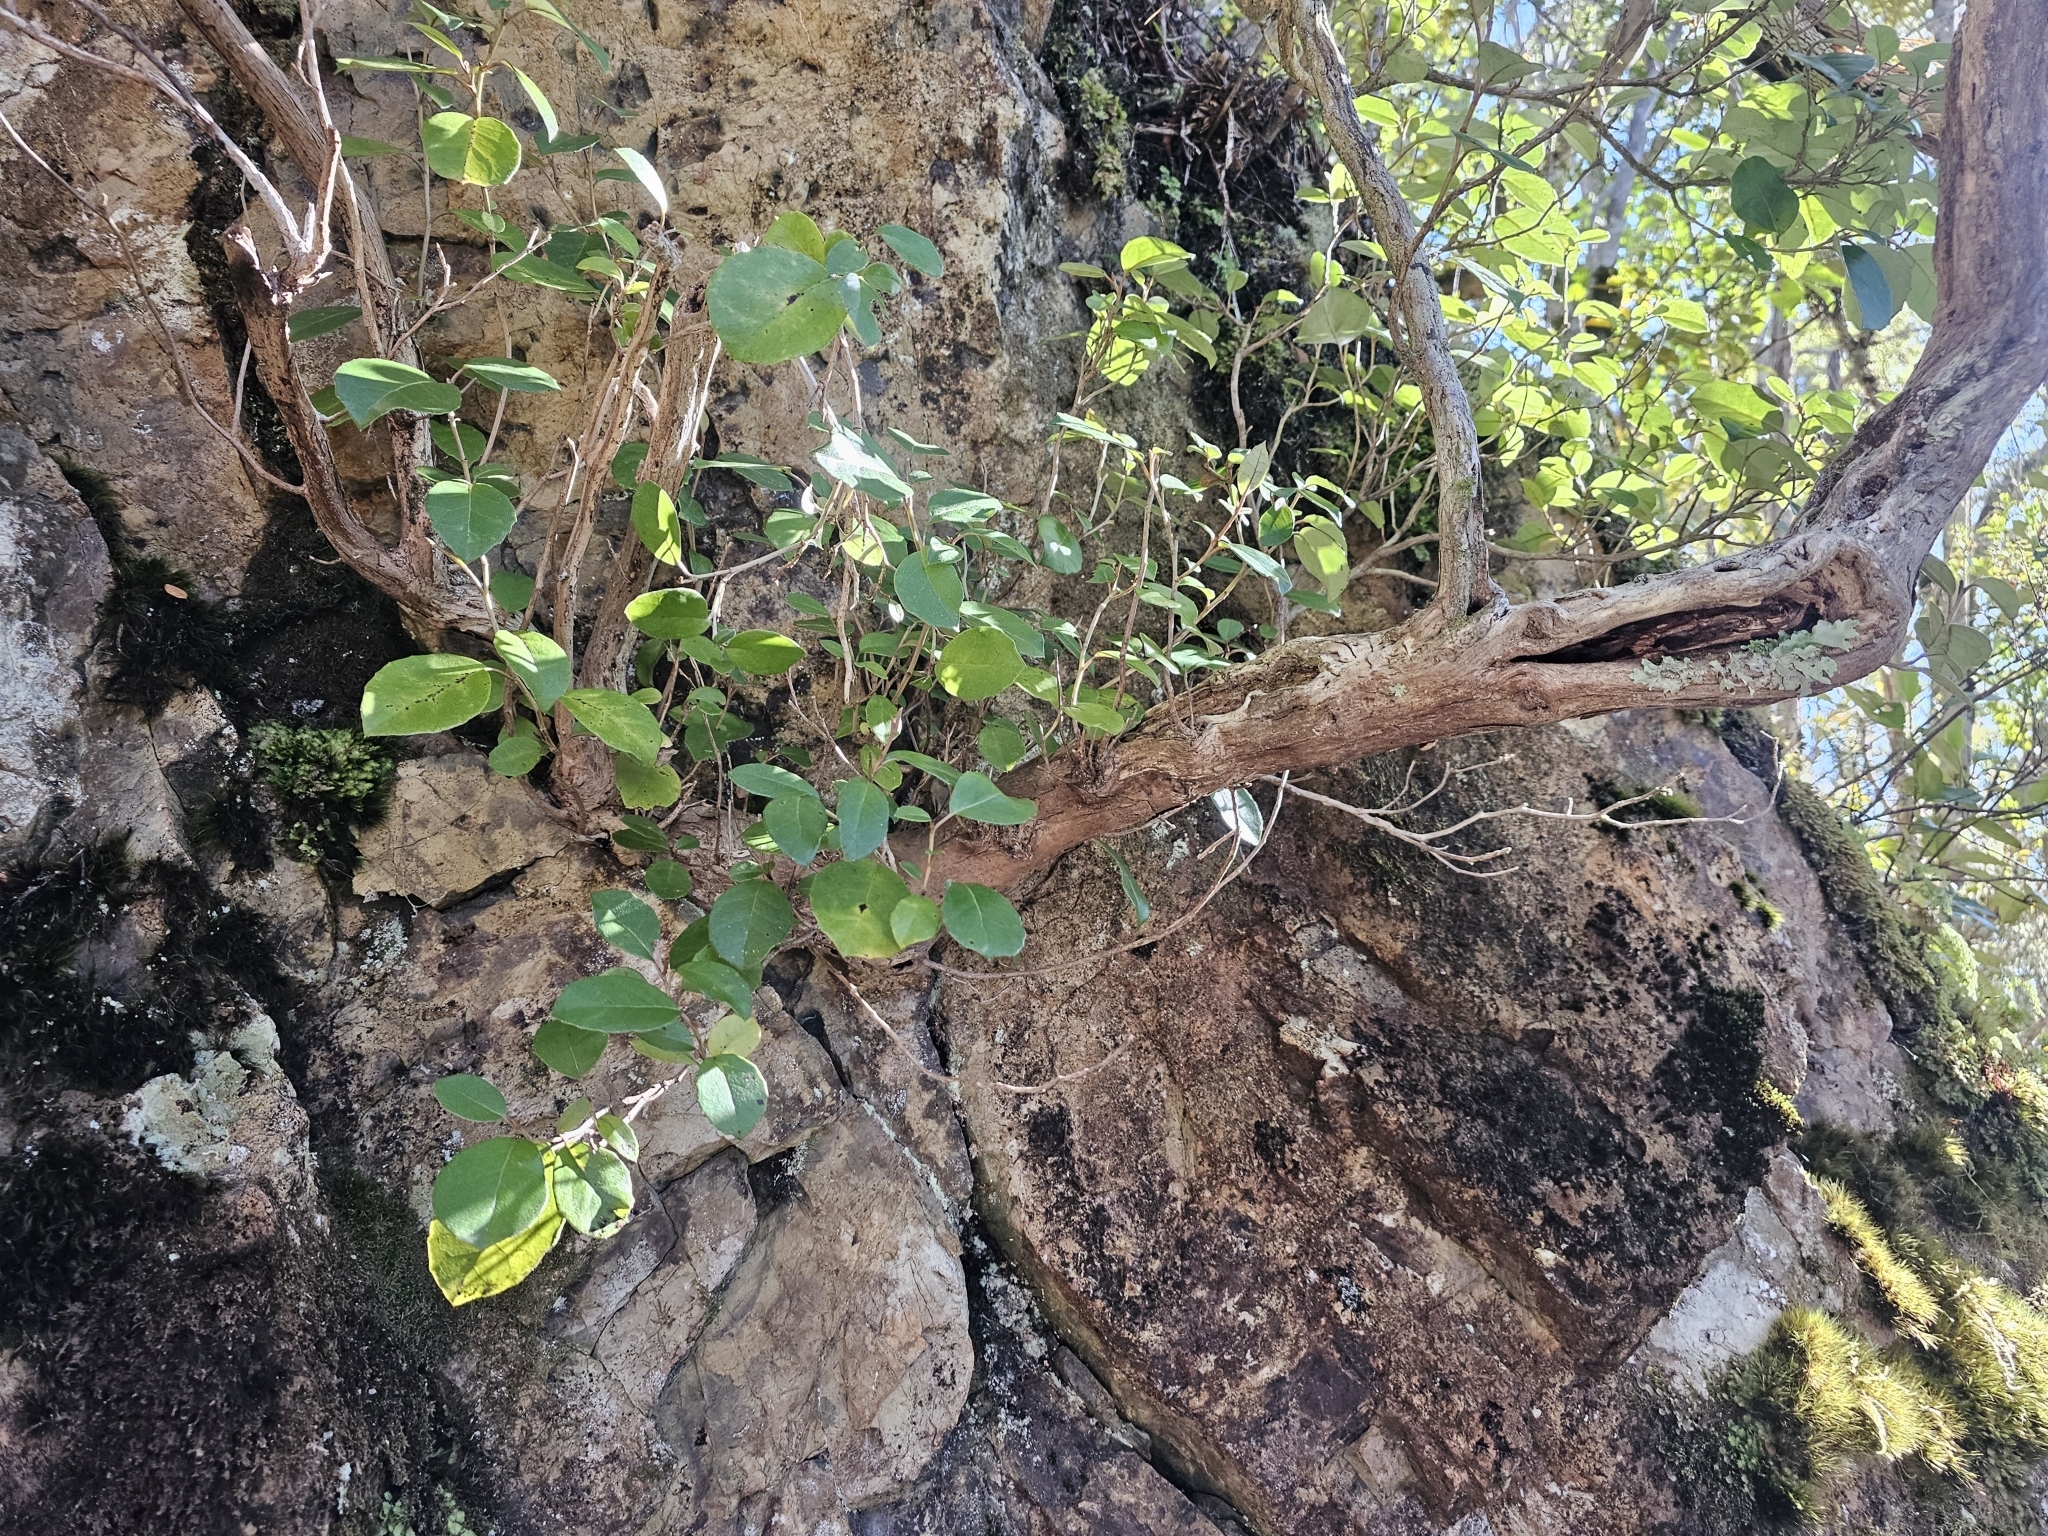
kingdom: Plantae
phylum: Tracheophyta
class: Magnoliopsida
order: Asterales
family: Asteraceae
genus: Olearia
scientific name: Olearia arborescens
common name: Glossy tree daisy
